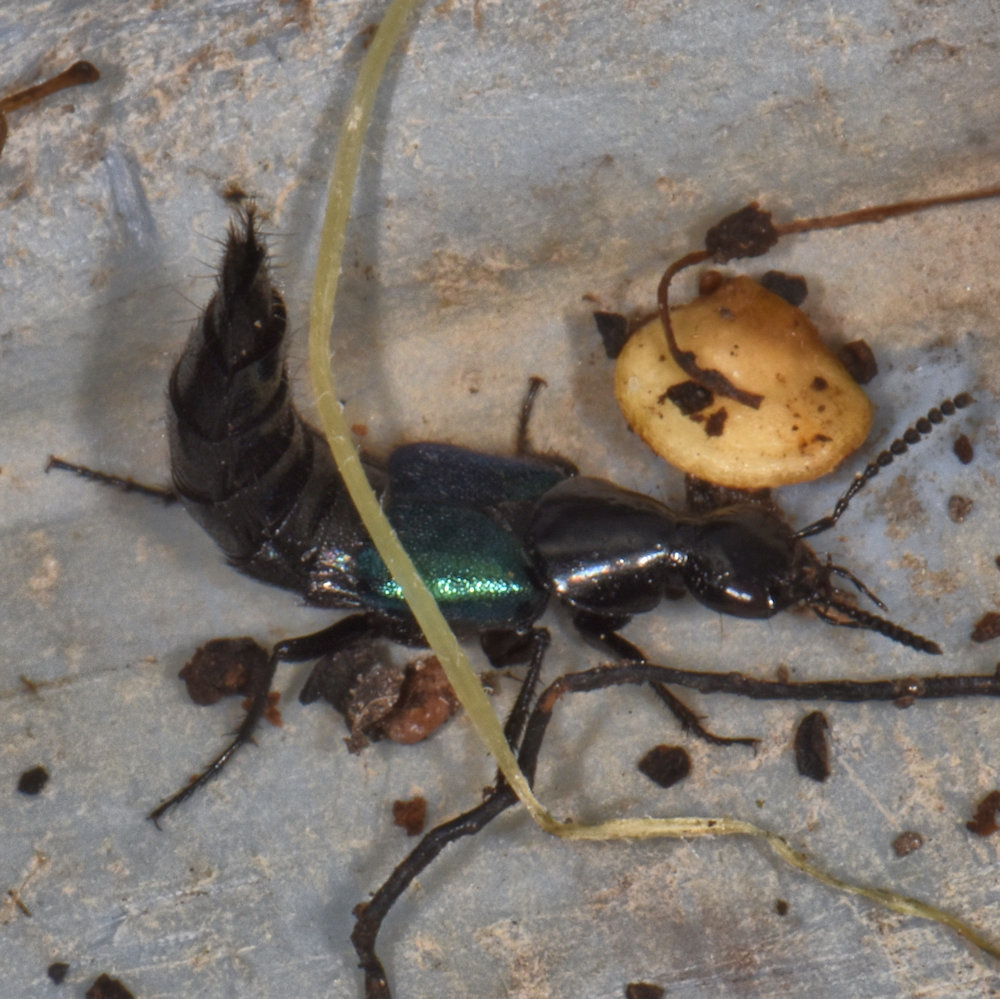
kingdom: Animalia
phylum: Arthropoda
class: Insecta
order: Coleoptera
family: Staphylinidae
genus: Philonthus
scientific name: Philonthus caeruleipennis
